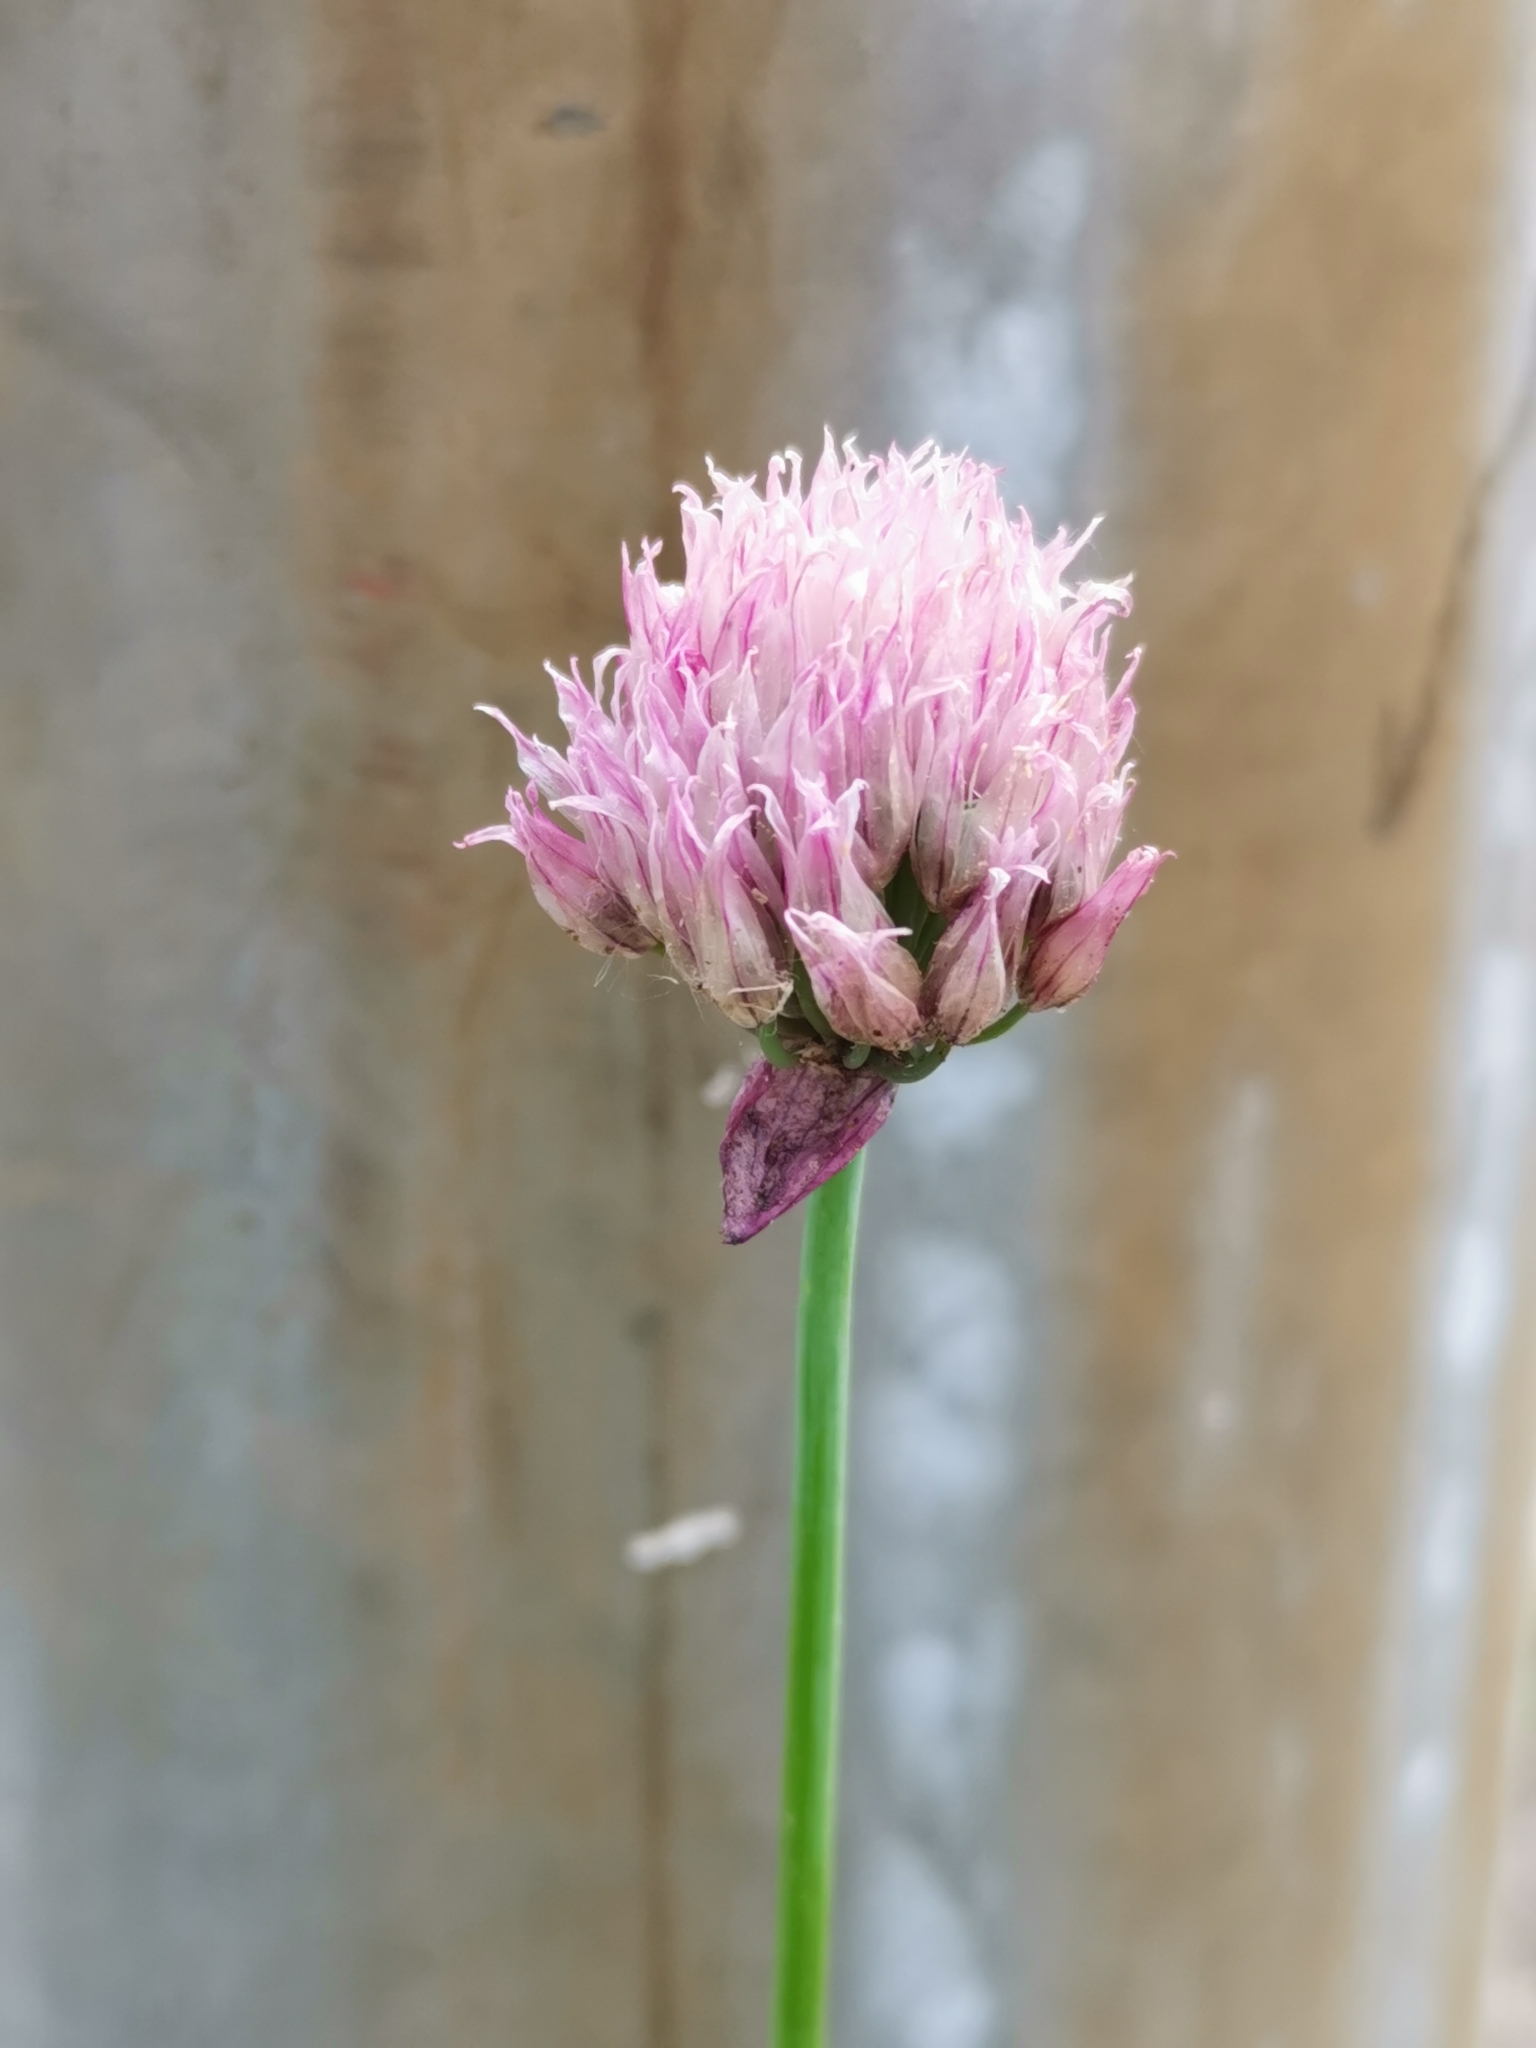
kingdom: Plantae
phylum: Tracheophyta
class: Liliopsida
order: Asparagales
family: Amaryllidaceae
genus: Allium
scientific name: Allium schoenoprasum
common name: Chives
